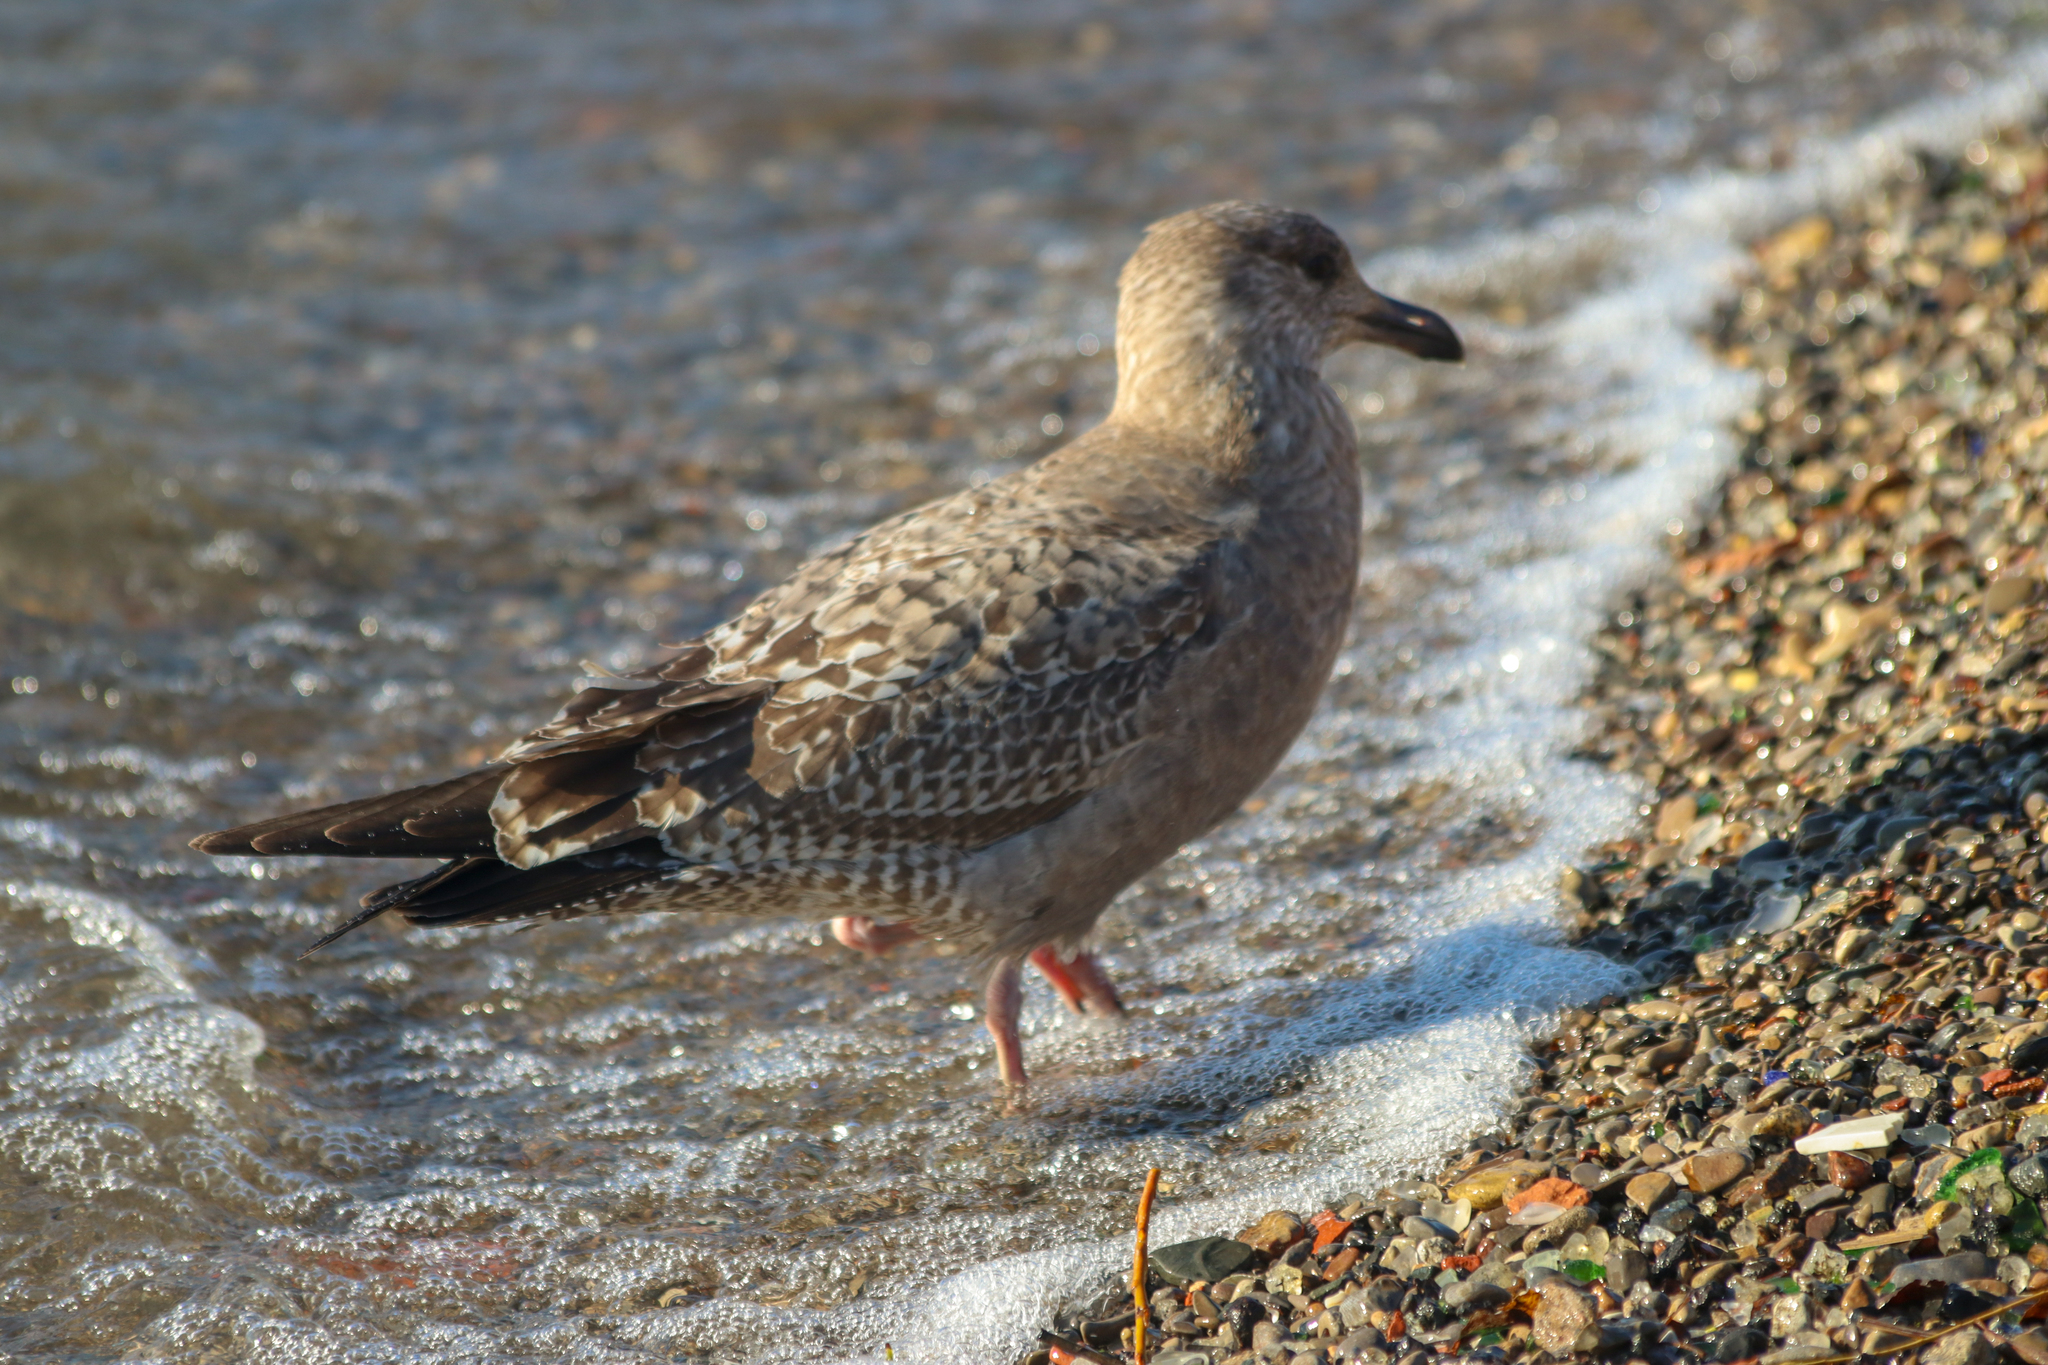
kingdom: Animalia
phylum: Chordata
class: Aves
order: Charadriiformes
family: Laridae
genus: Larus
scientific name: Larus argentatus
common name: Herring gull
